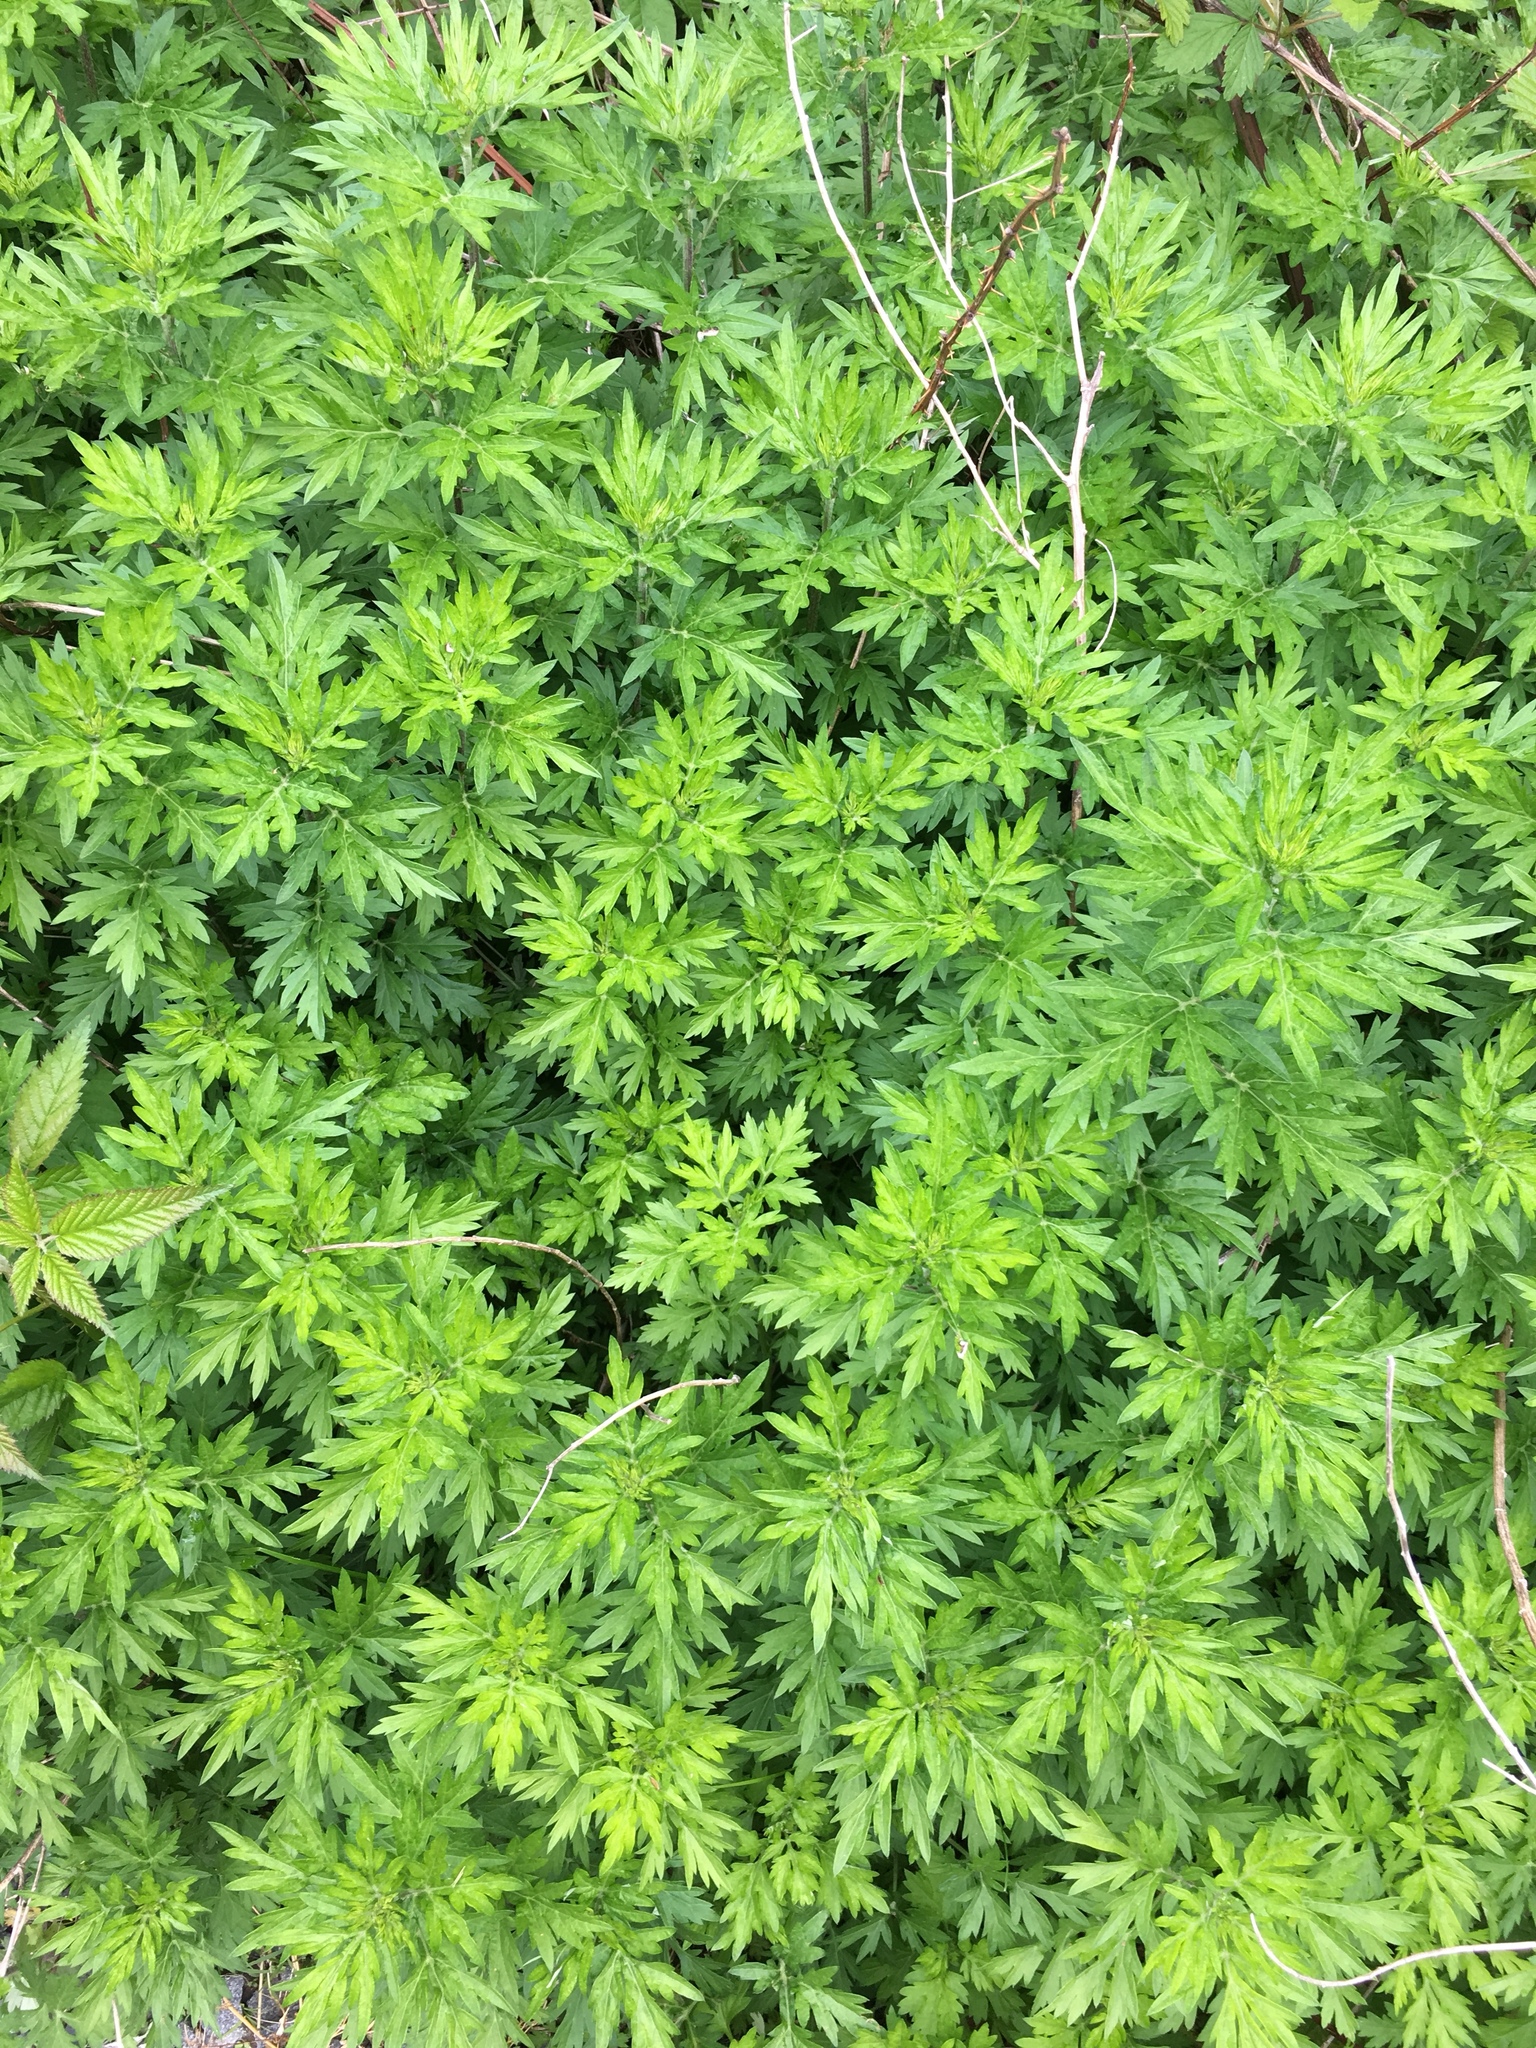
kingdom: Plantae
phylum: Tracheophyta
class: Magnoliopsida
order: Asterales
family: Asteraceae
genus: Artemisia
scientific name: Artemisia vulgaris
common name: Mugwort
